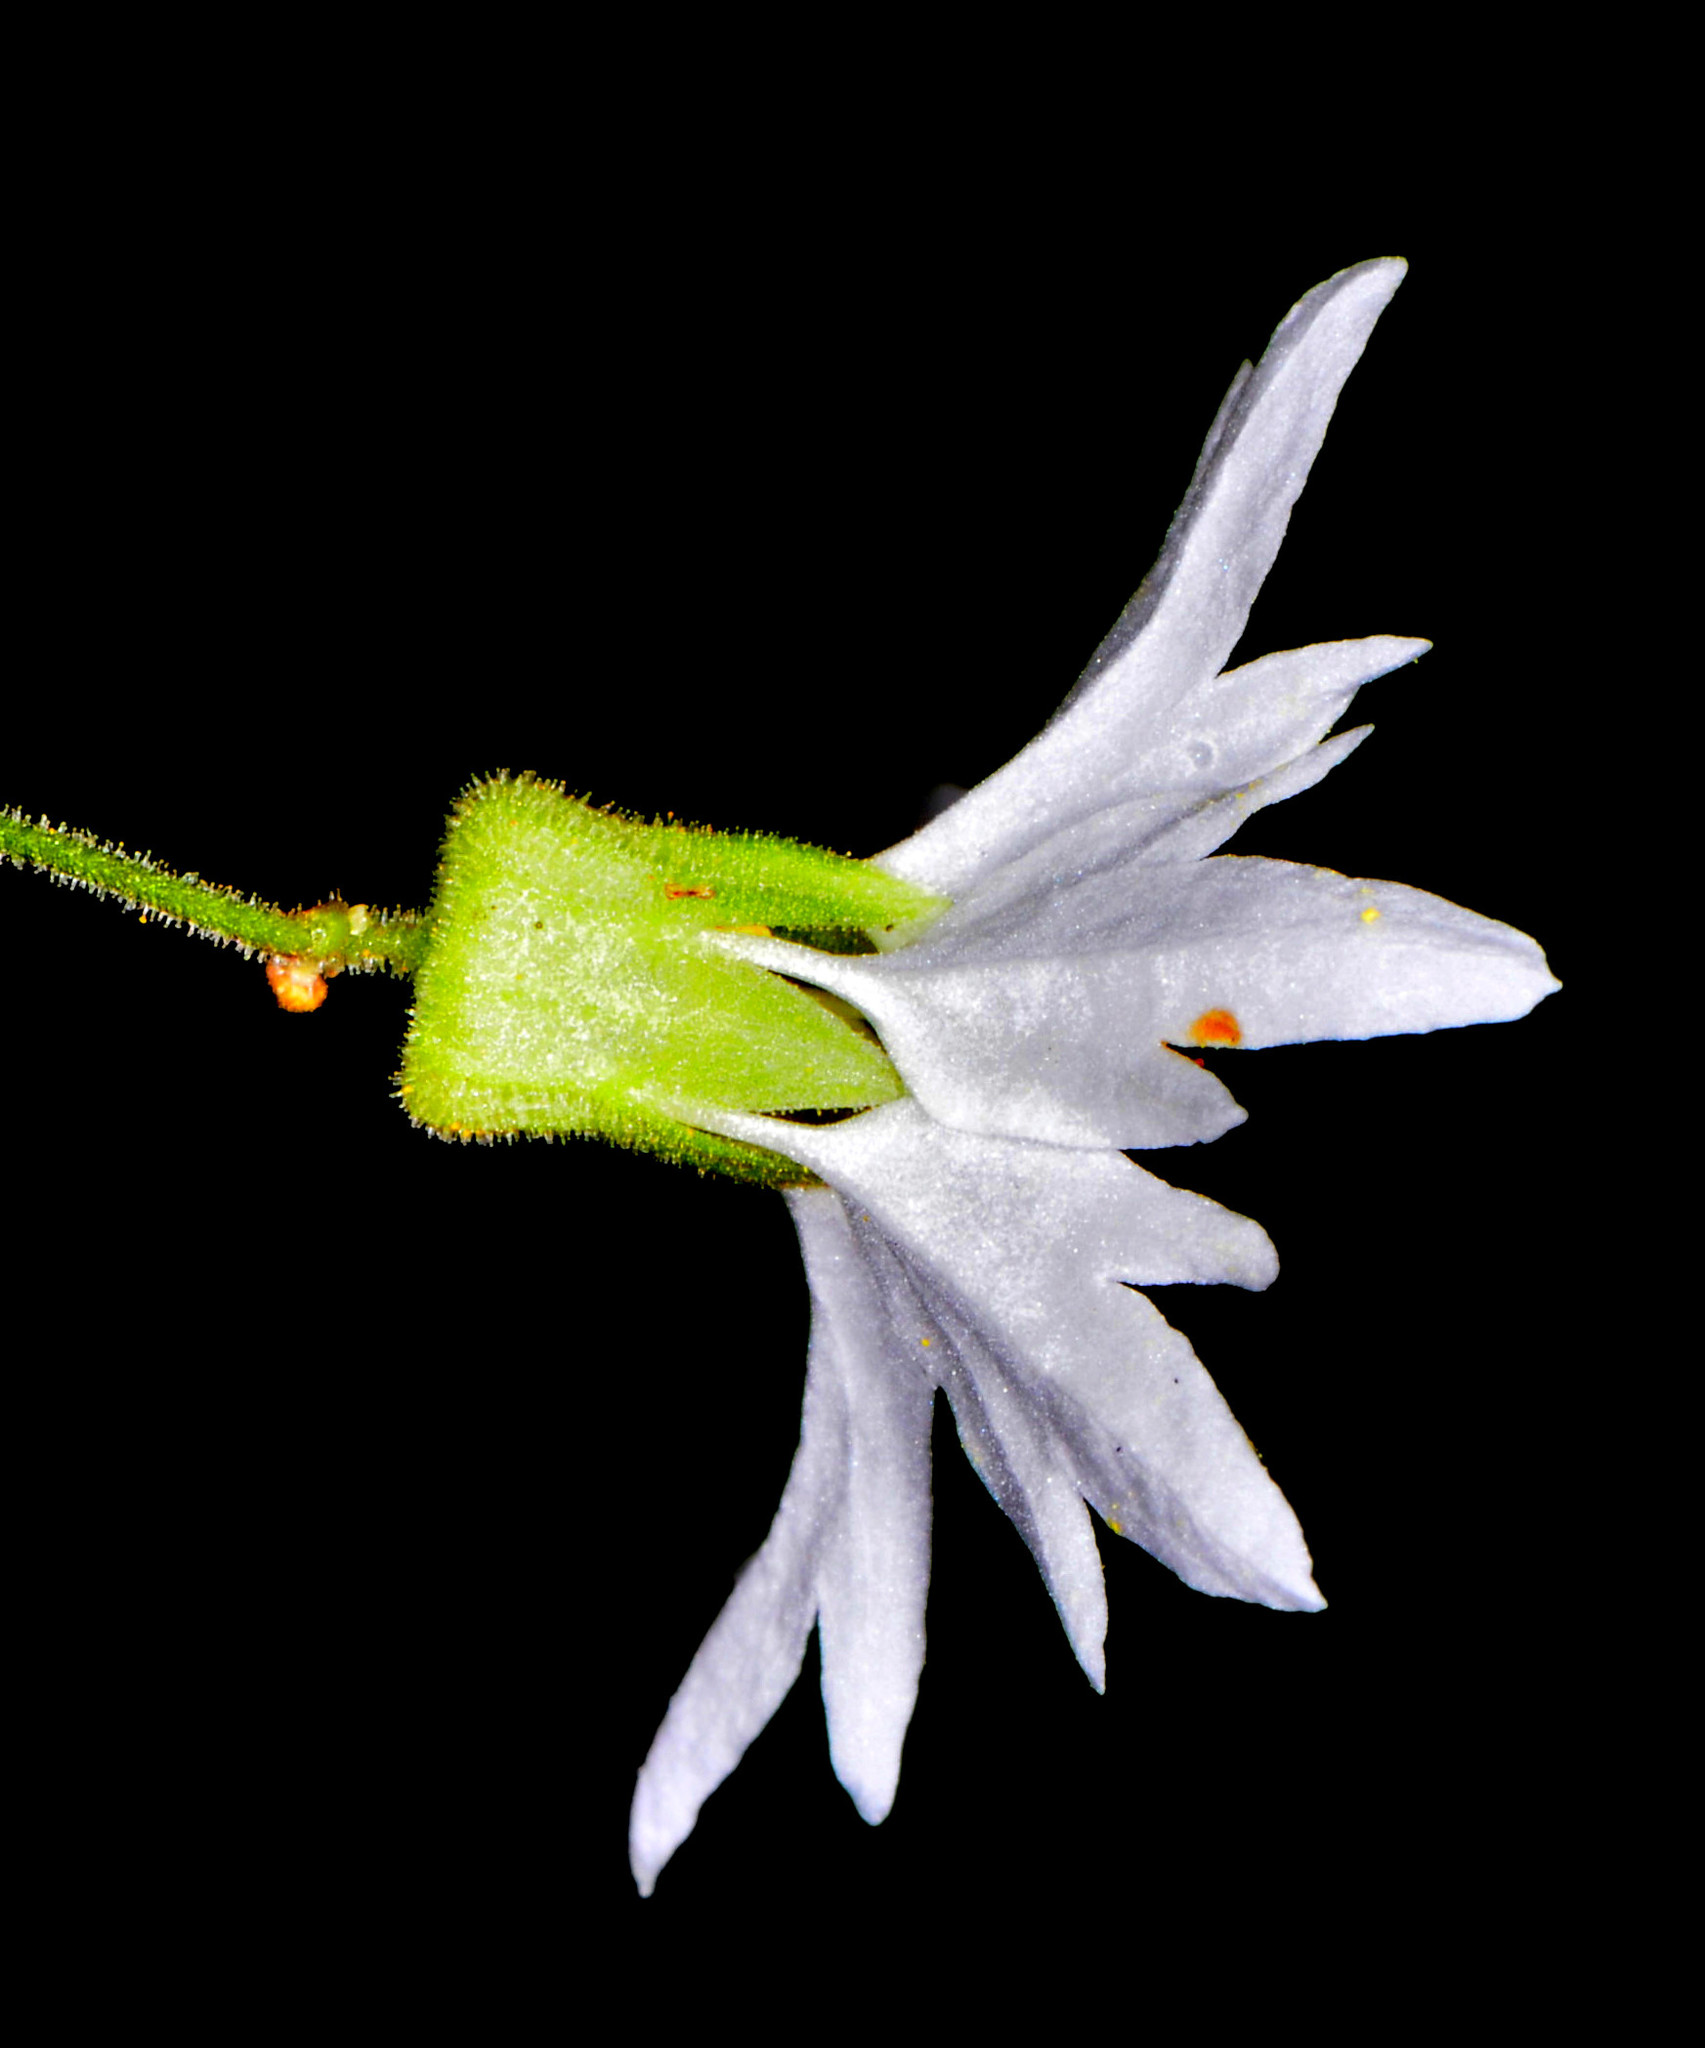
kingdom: Plantae
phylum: Tracheophyta
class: Magnoliopsida
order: Saxifragales
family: Saxifragaceae
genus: Lithophragma
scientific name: Lithophragma heterophyllum
